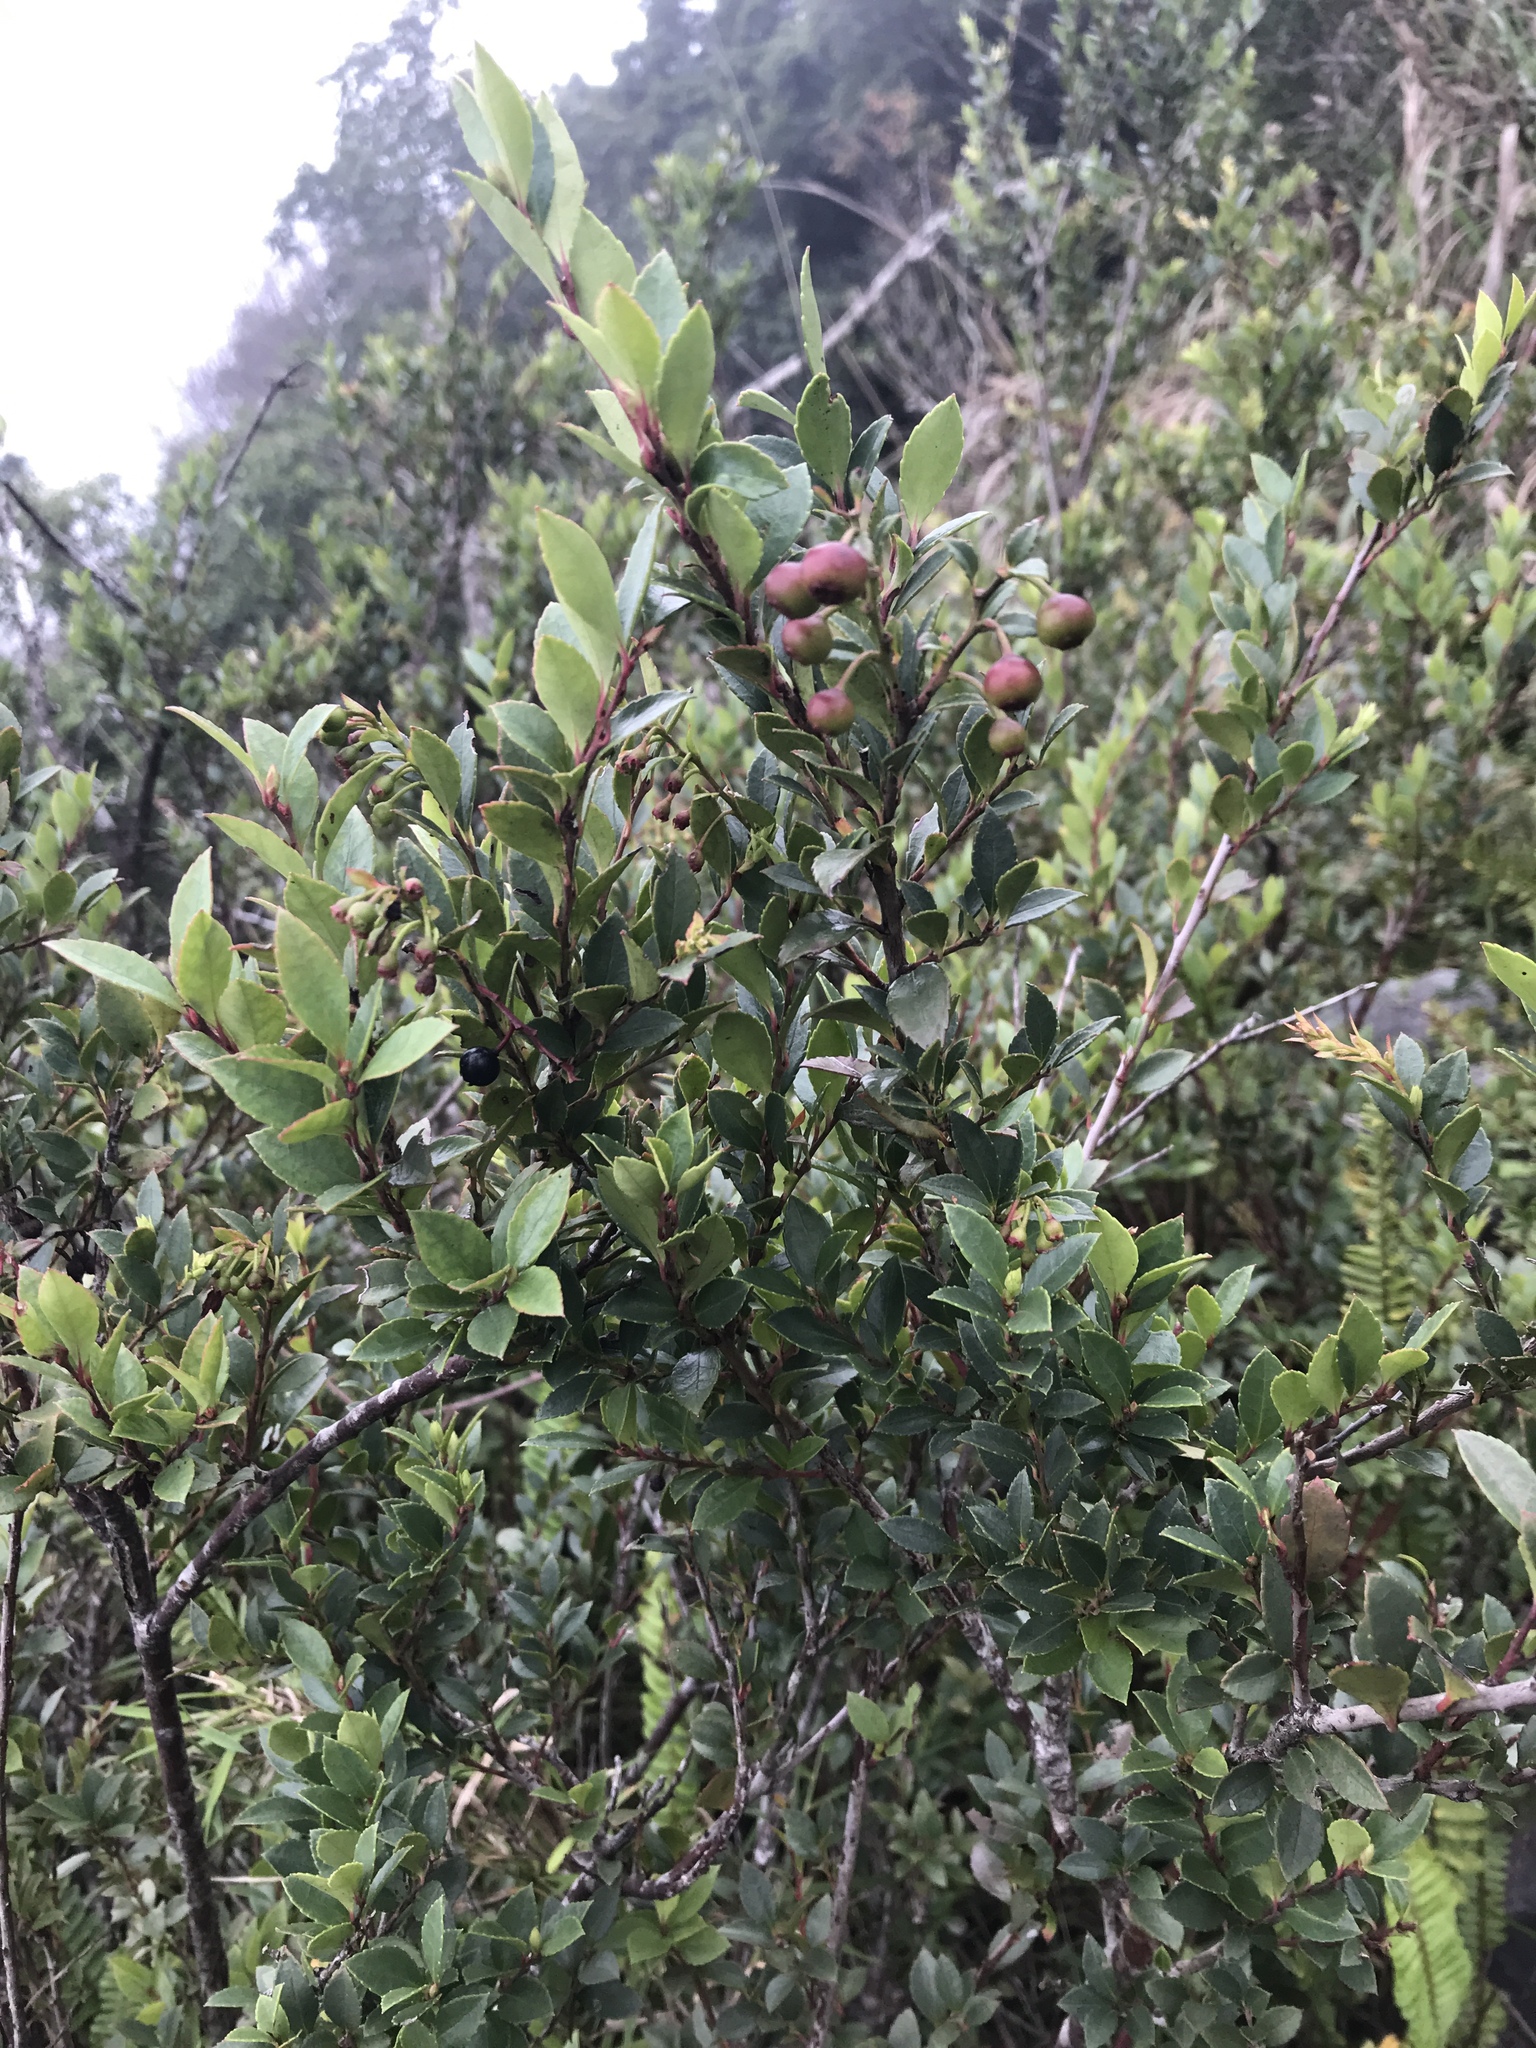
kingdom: Plantae
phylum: Tracheophyta
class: Magnoliopsida
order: Ericales
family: Ericaceae
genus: Vaccinium
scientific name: Vaccinium wrightii
